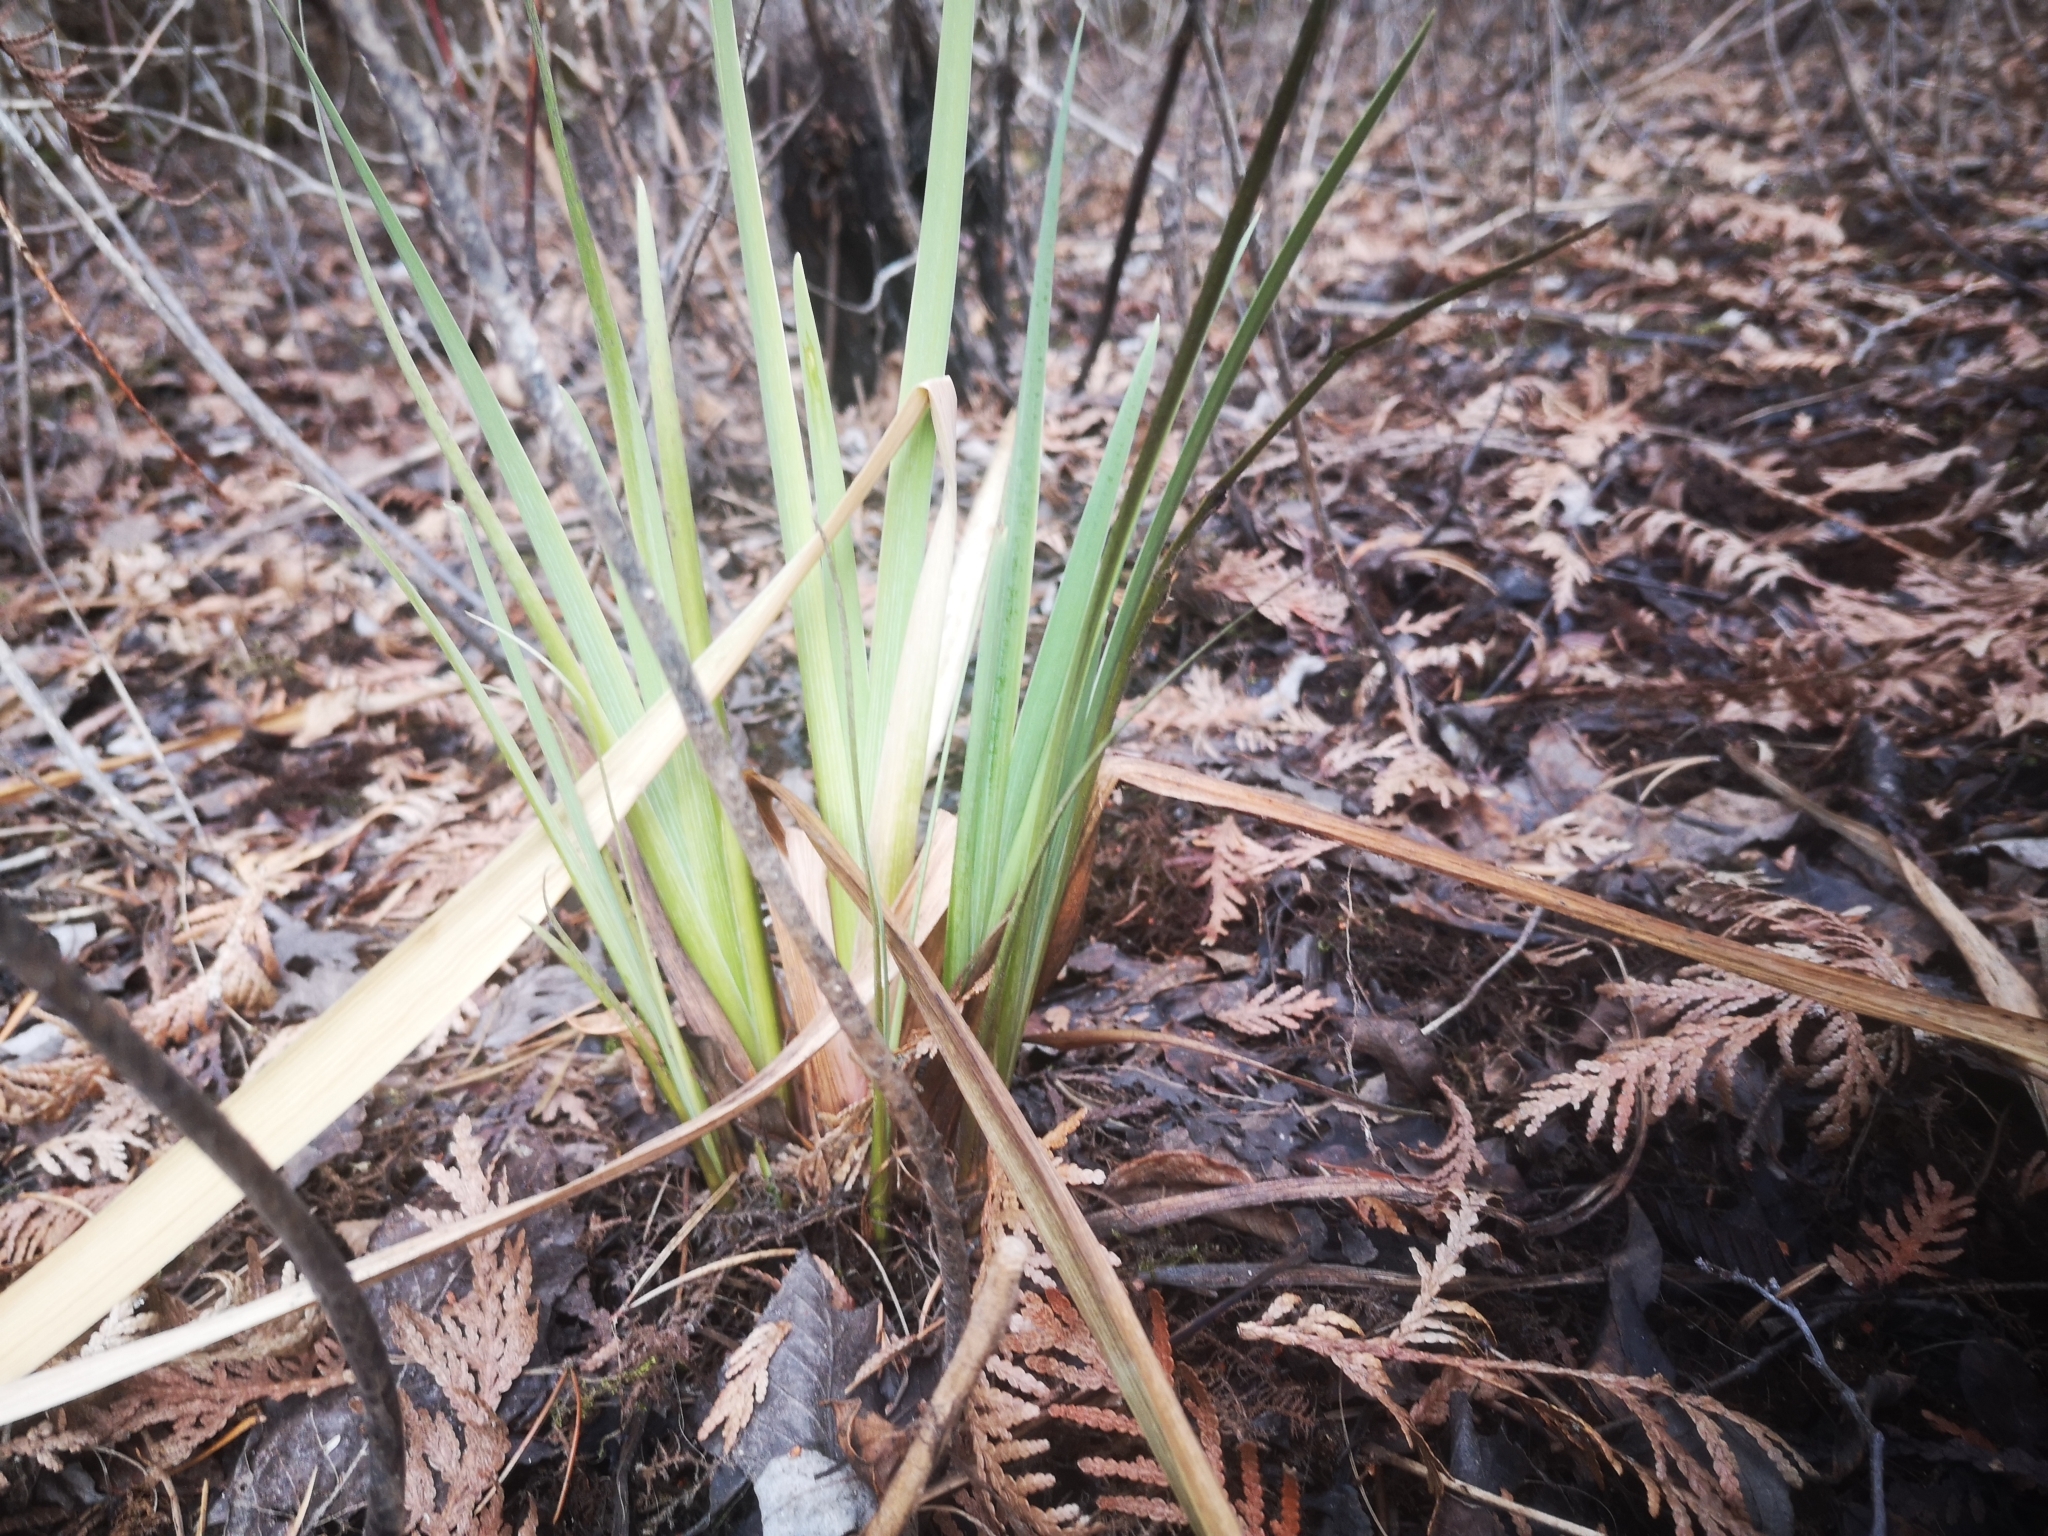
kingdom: Plantae
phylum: Tracheophyta
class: Liliopsida
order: Asparagales
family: Iridaceae
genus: Iris
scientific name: Iris versicolor
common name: Purple iris
